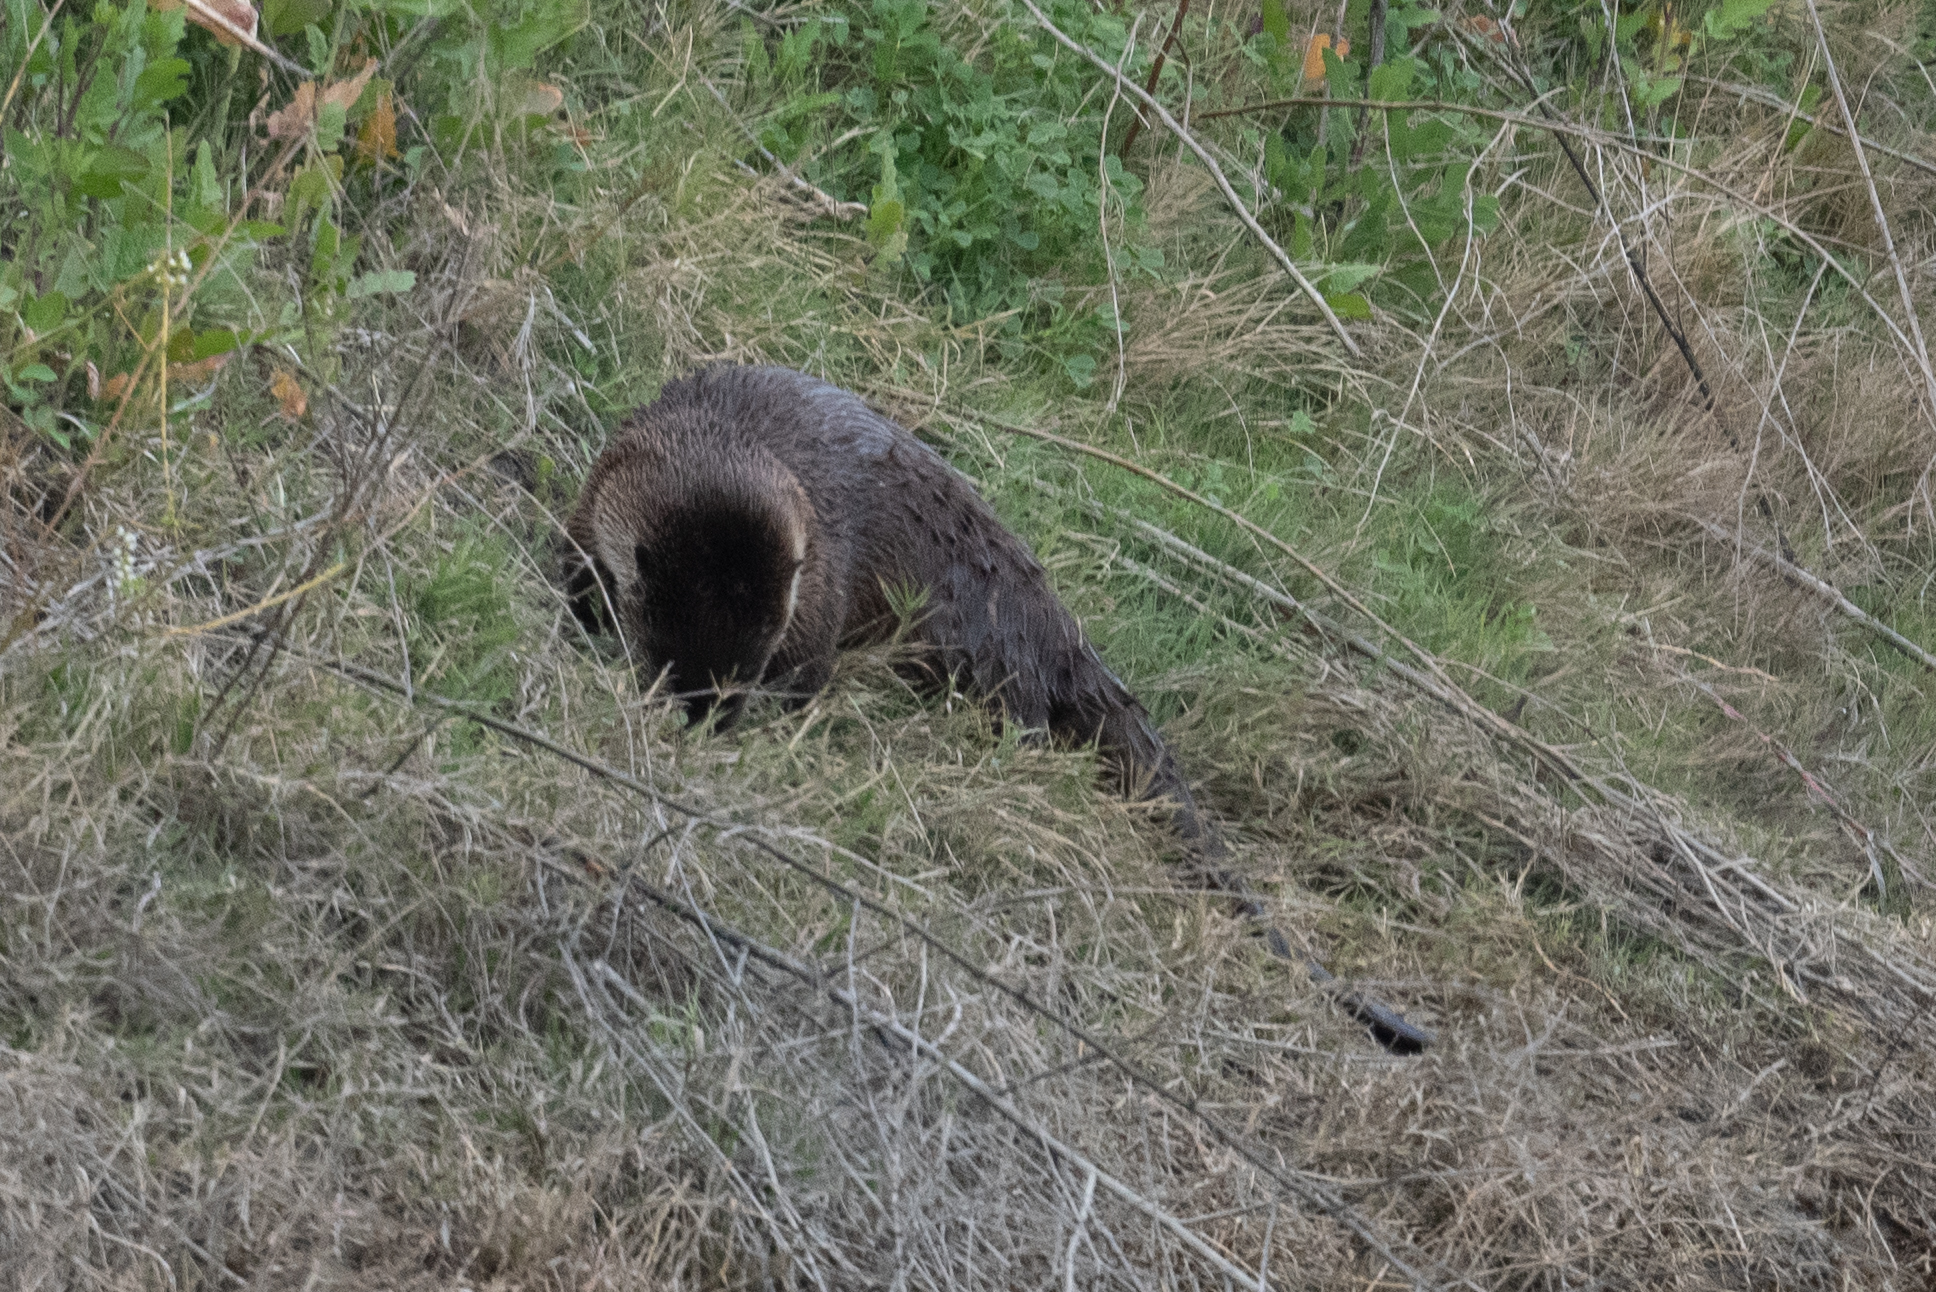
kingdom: Animalia
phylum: Chordata
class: Mammalia
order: Carnivora
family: Mustelidae
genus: Lontra
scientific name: Lontra canadensis
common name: North american river otter
